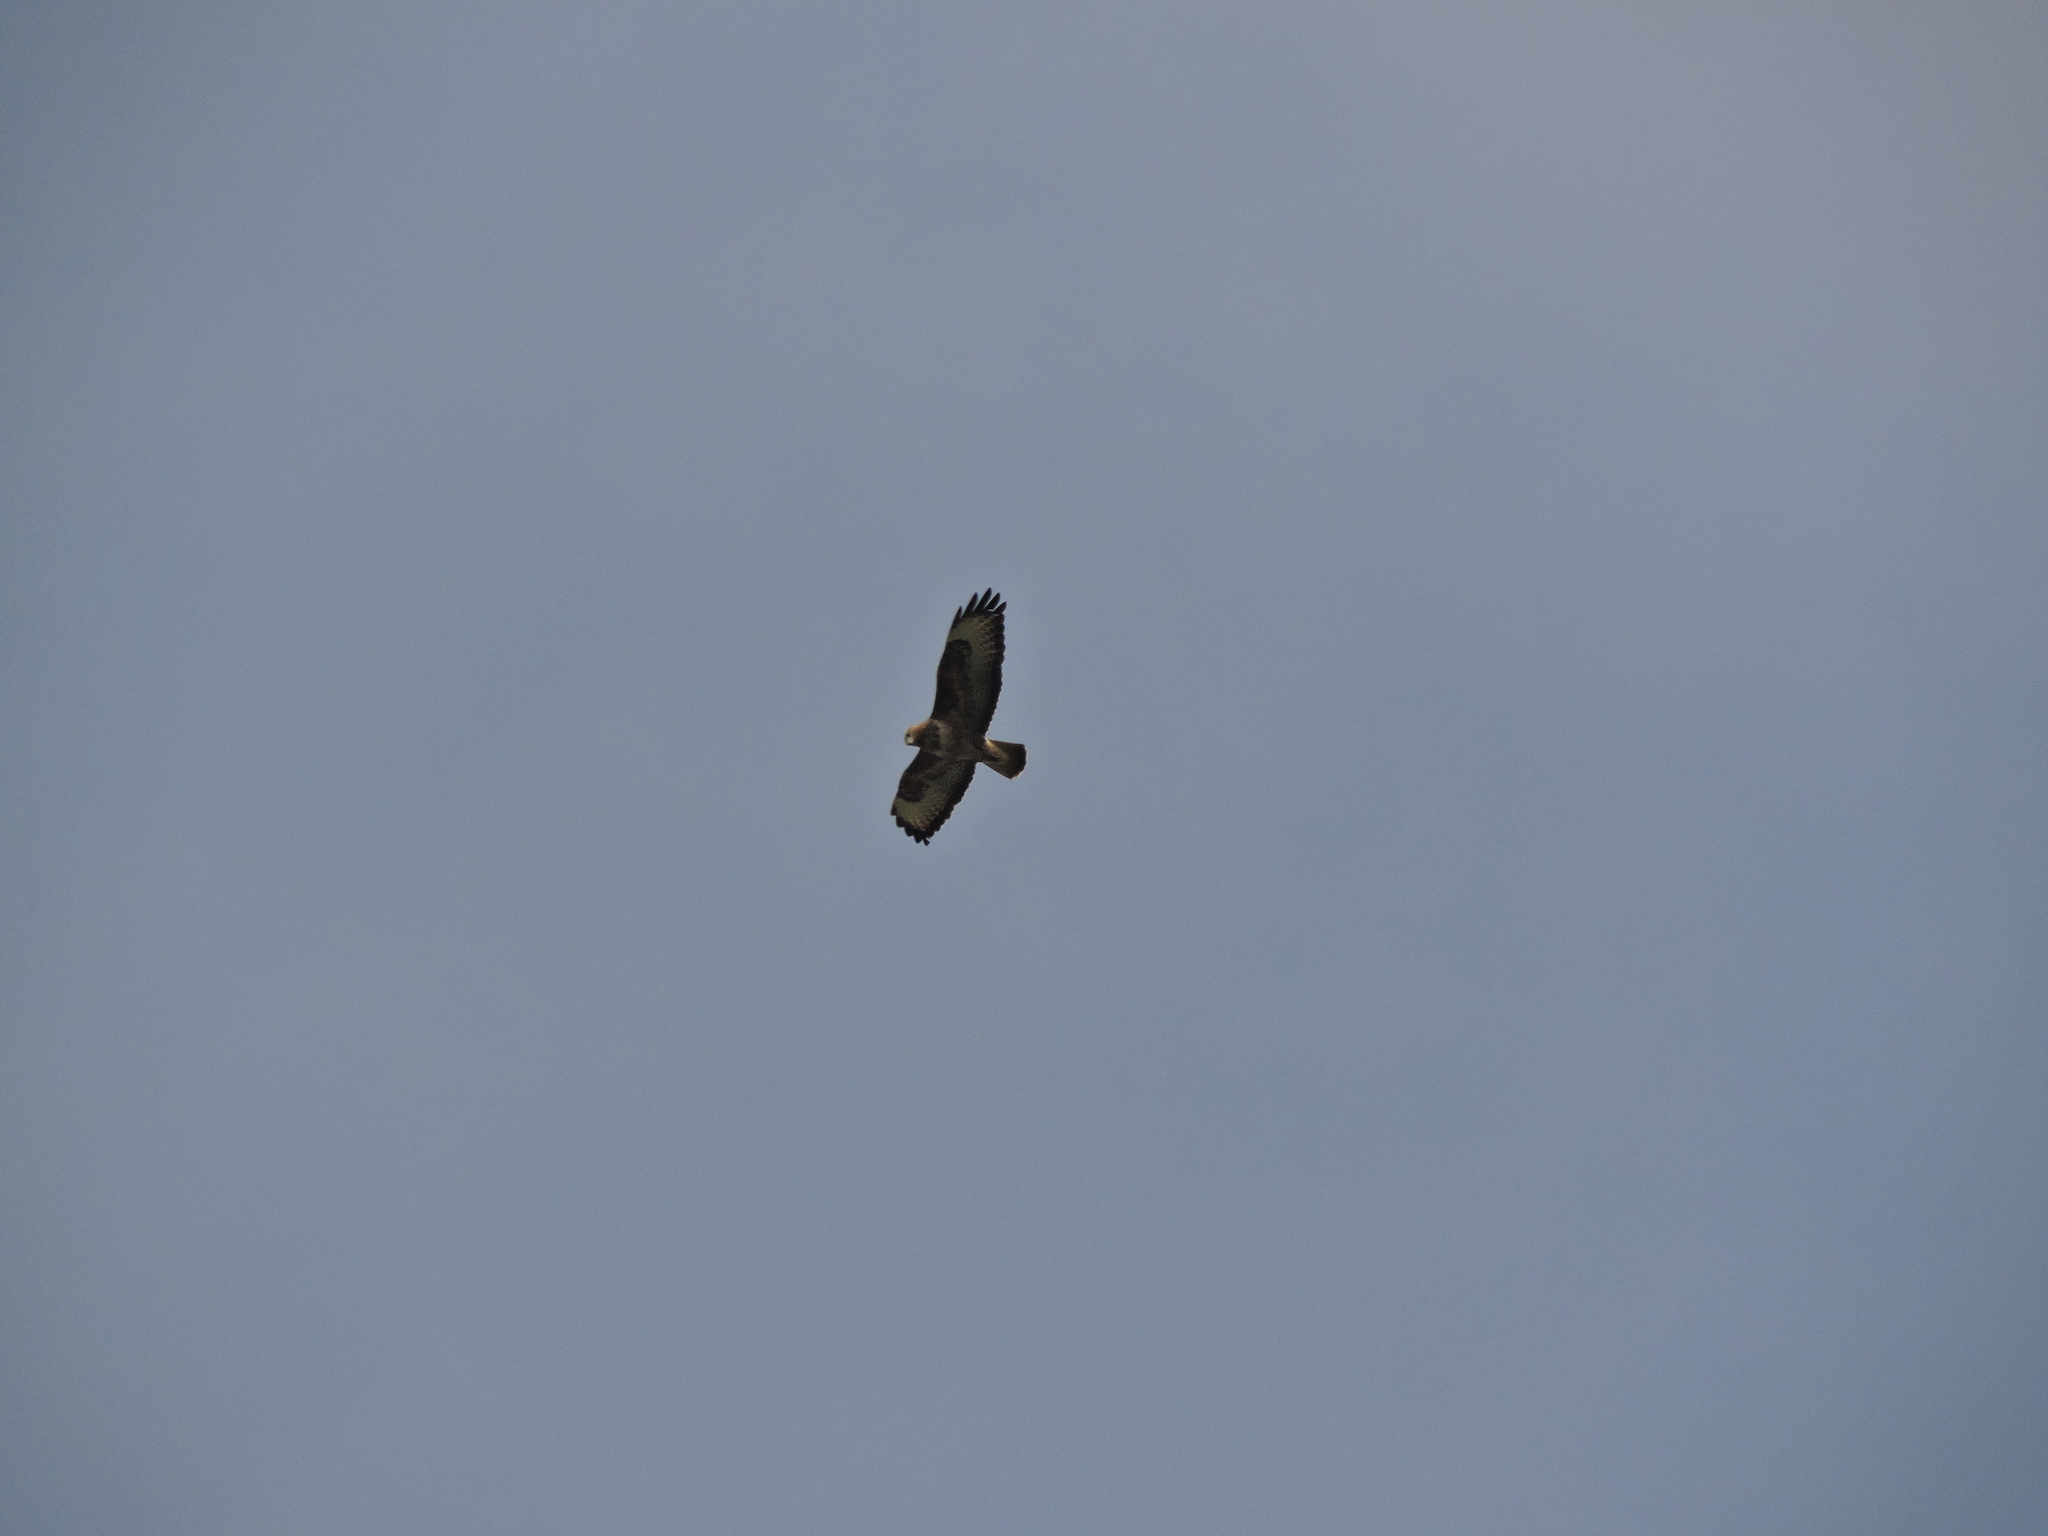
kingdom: Animalia
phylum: Chordata
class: Aves
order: Accipitriformes
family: Accipitridae
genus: Buteo
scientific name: Buteo buteo
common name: Common buzzard
